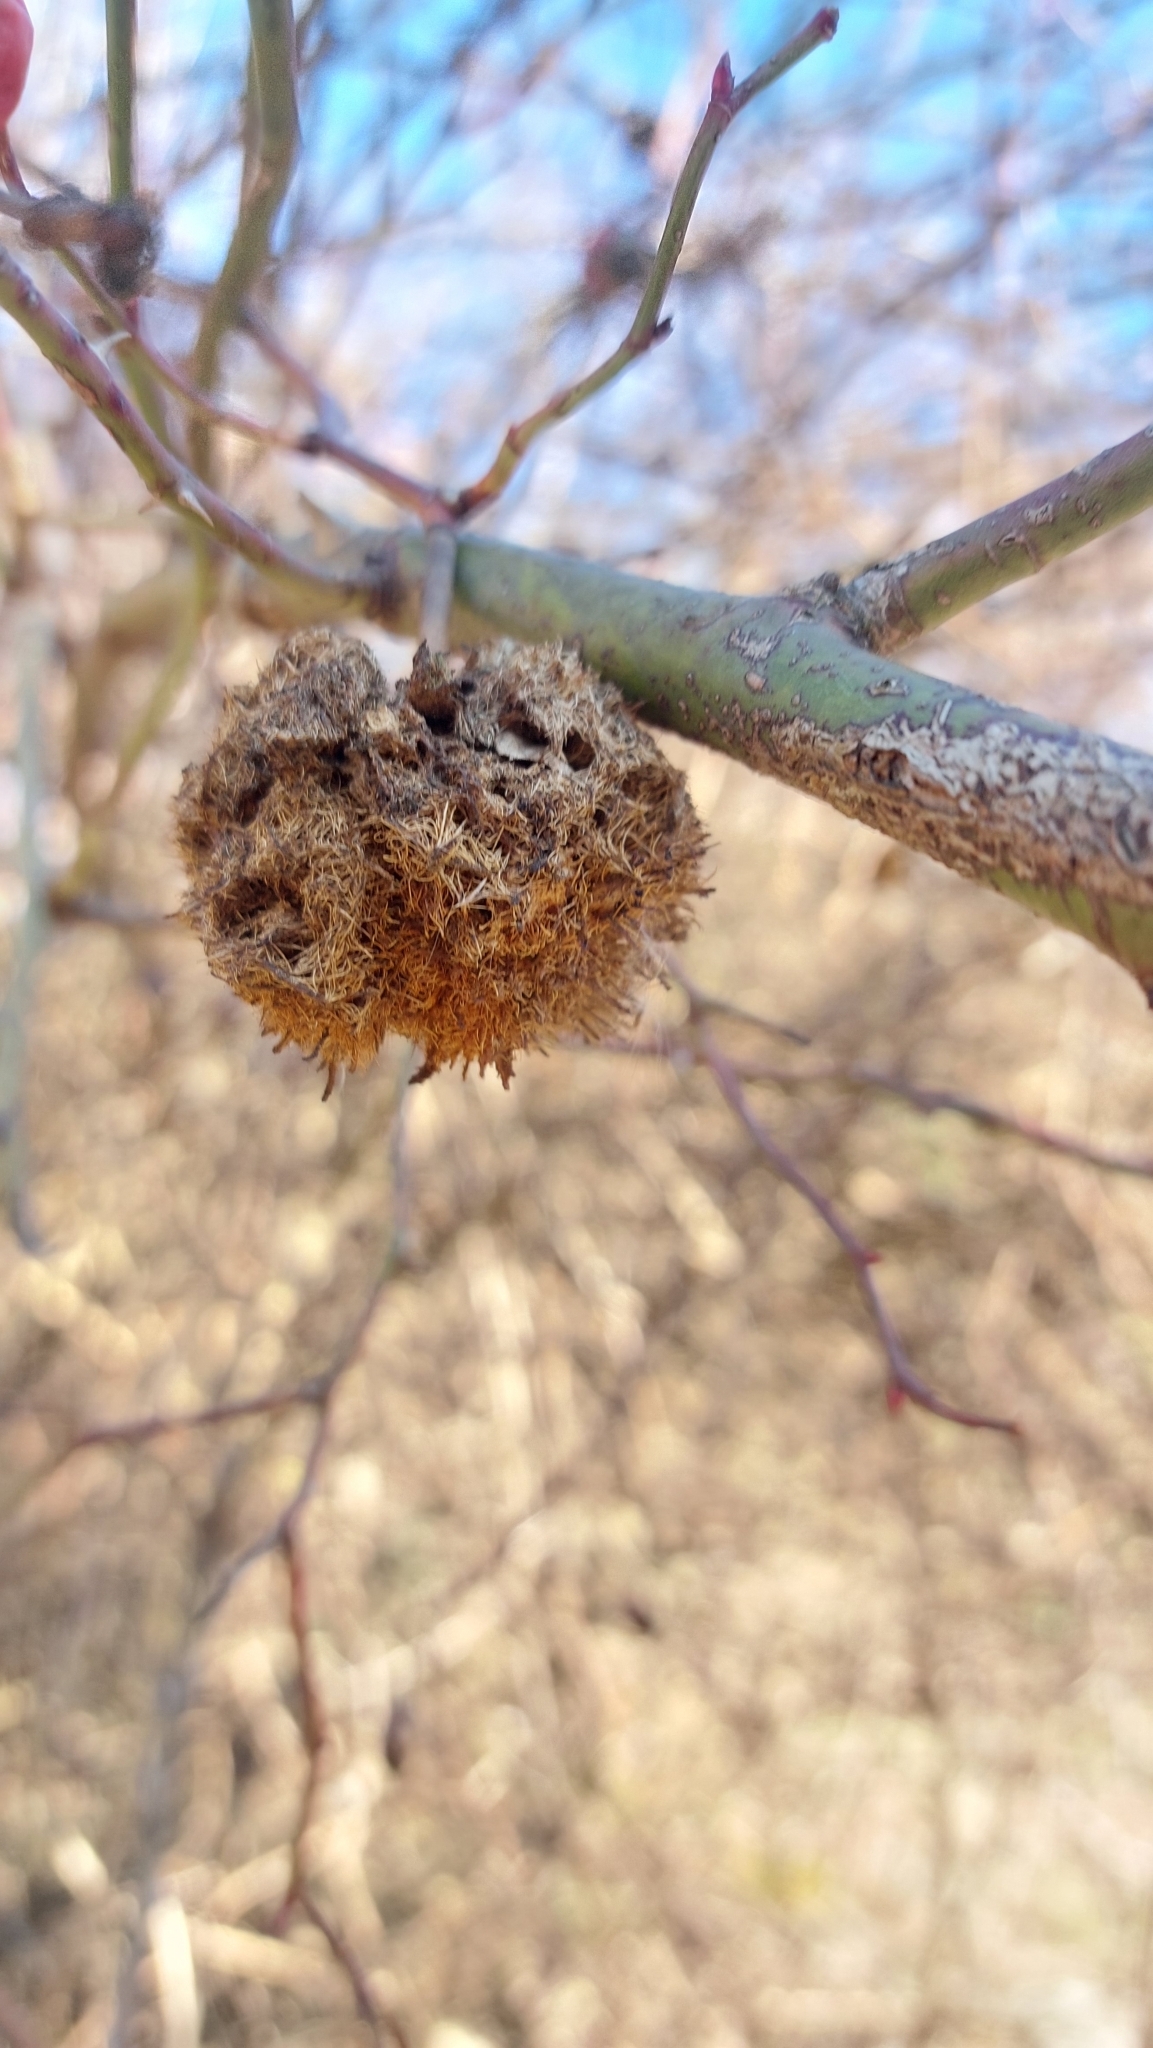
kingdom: Animalia
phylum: Arthropoda
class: Insecta
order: Hymenoptera
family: Cynipidae
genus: Diplolepis
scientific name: Diplolepis rosae
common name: Bedeguar gall
